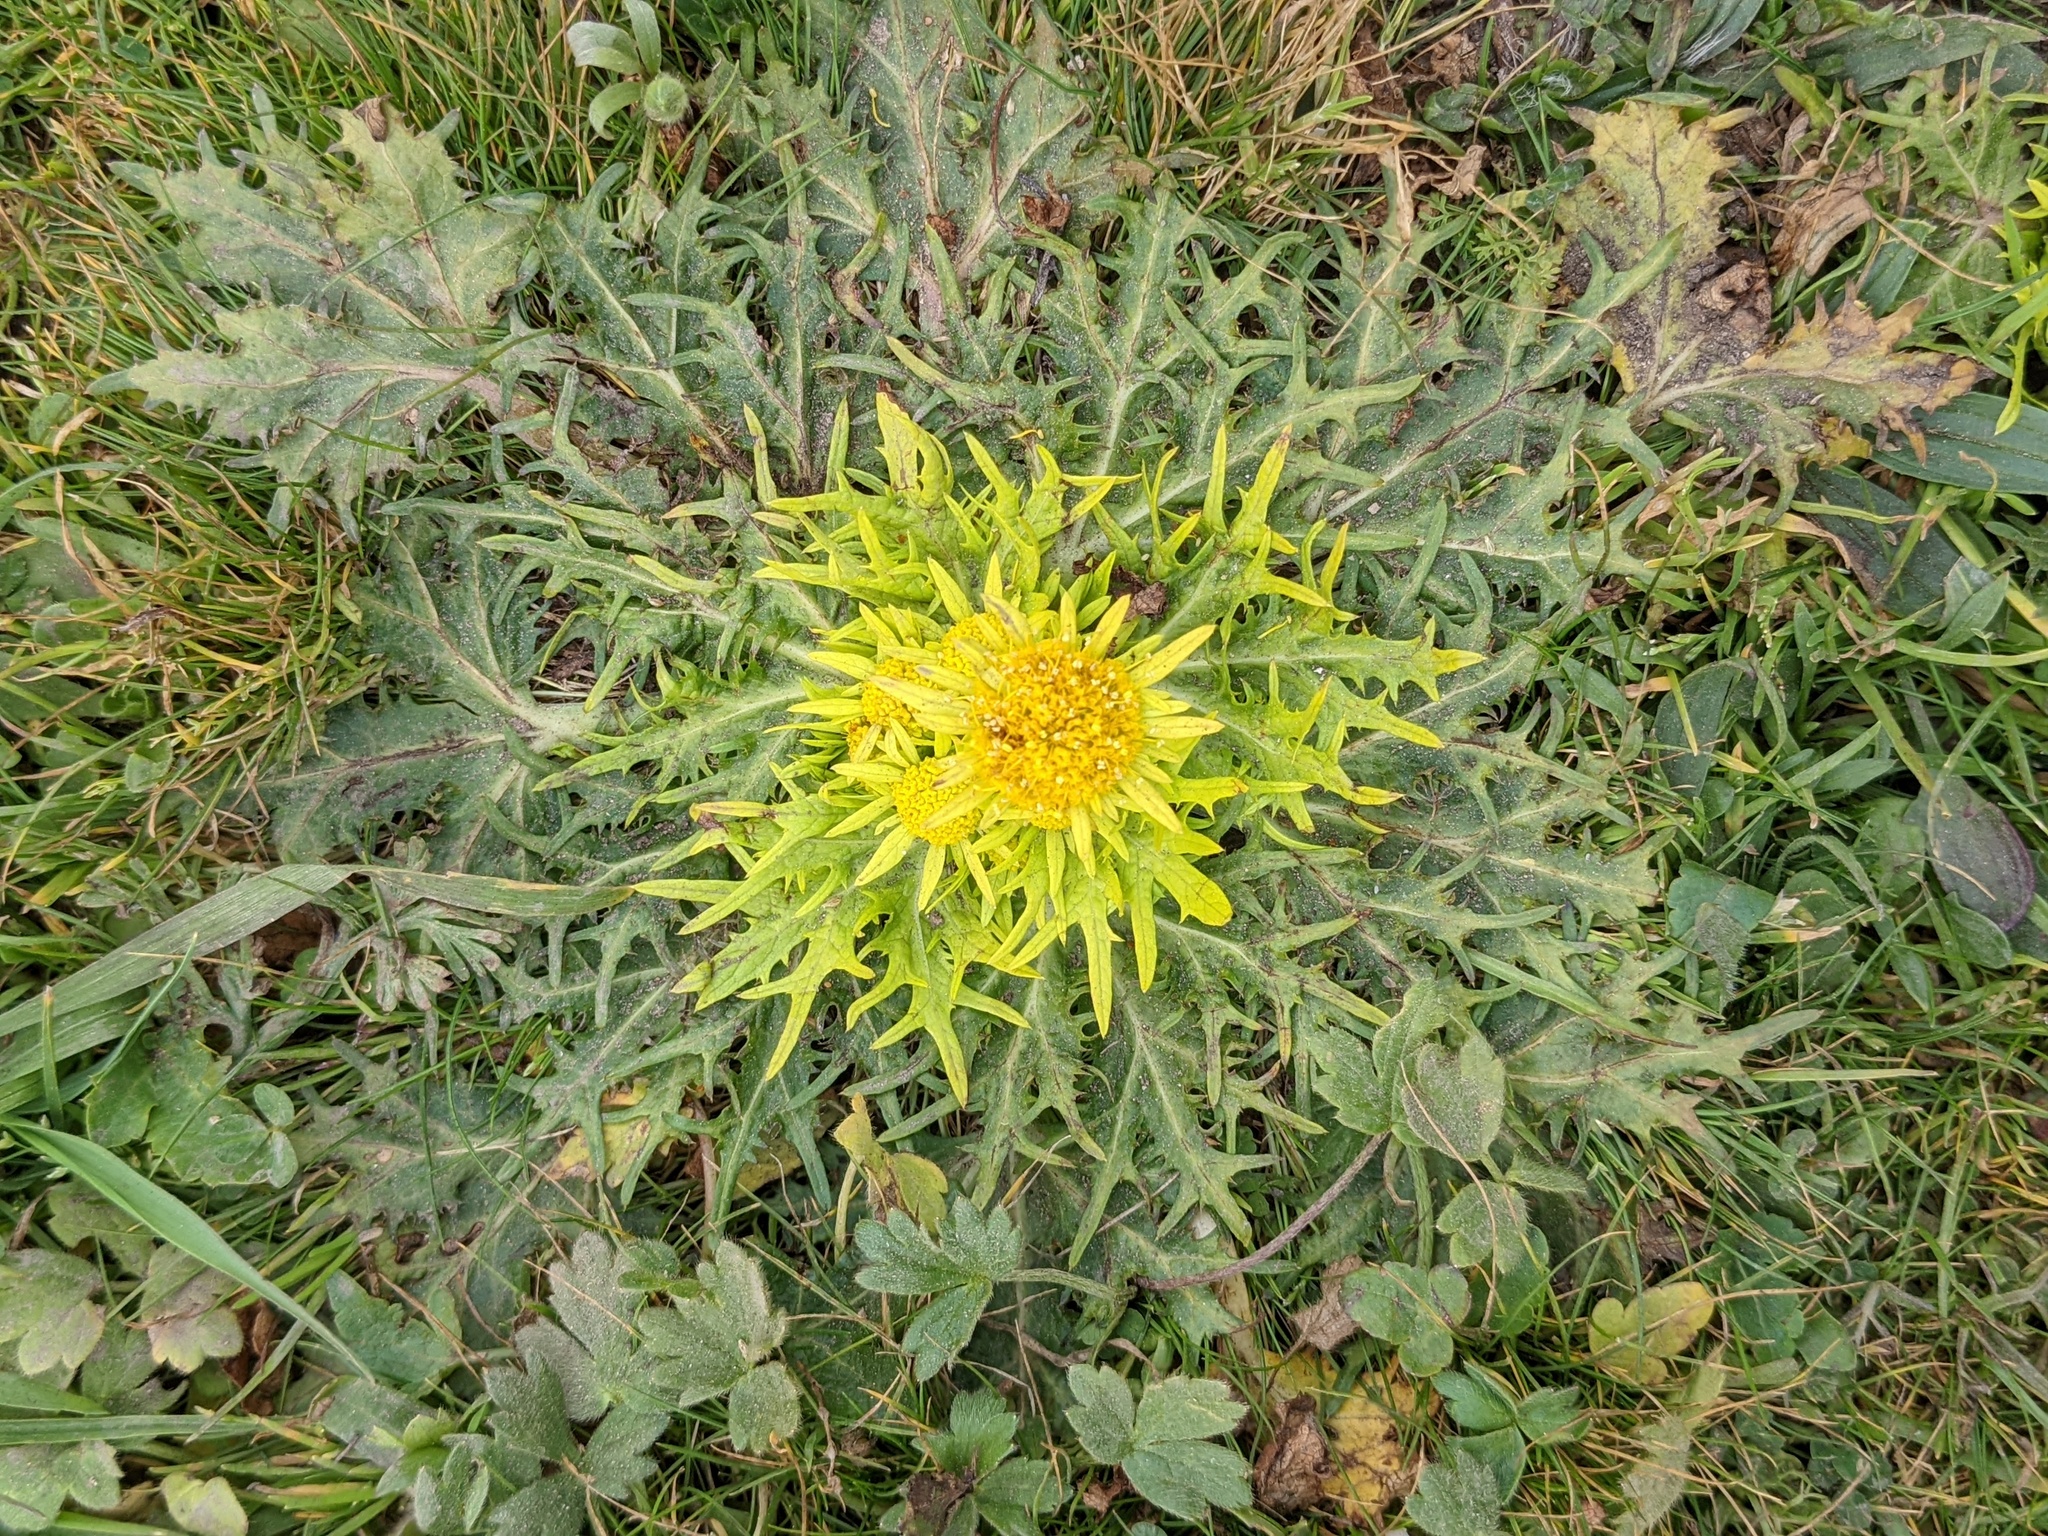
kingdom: Plantae
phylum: Tracheophyta
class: Magnoliopsida
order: Apiales
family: Apiaceae
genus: Sanicula
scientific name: Sanicula arctopoides
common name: Footsteps-of-spring
